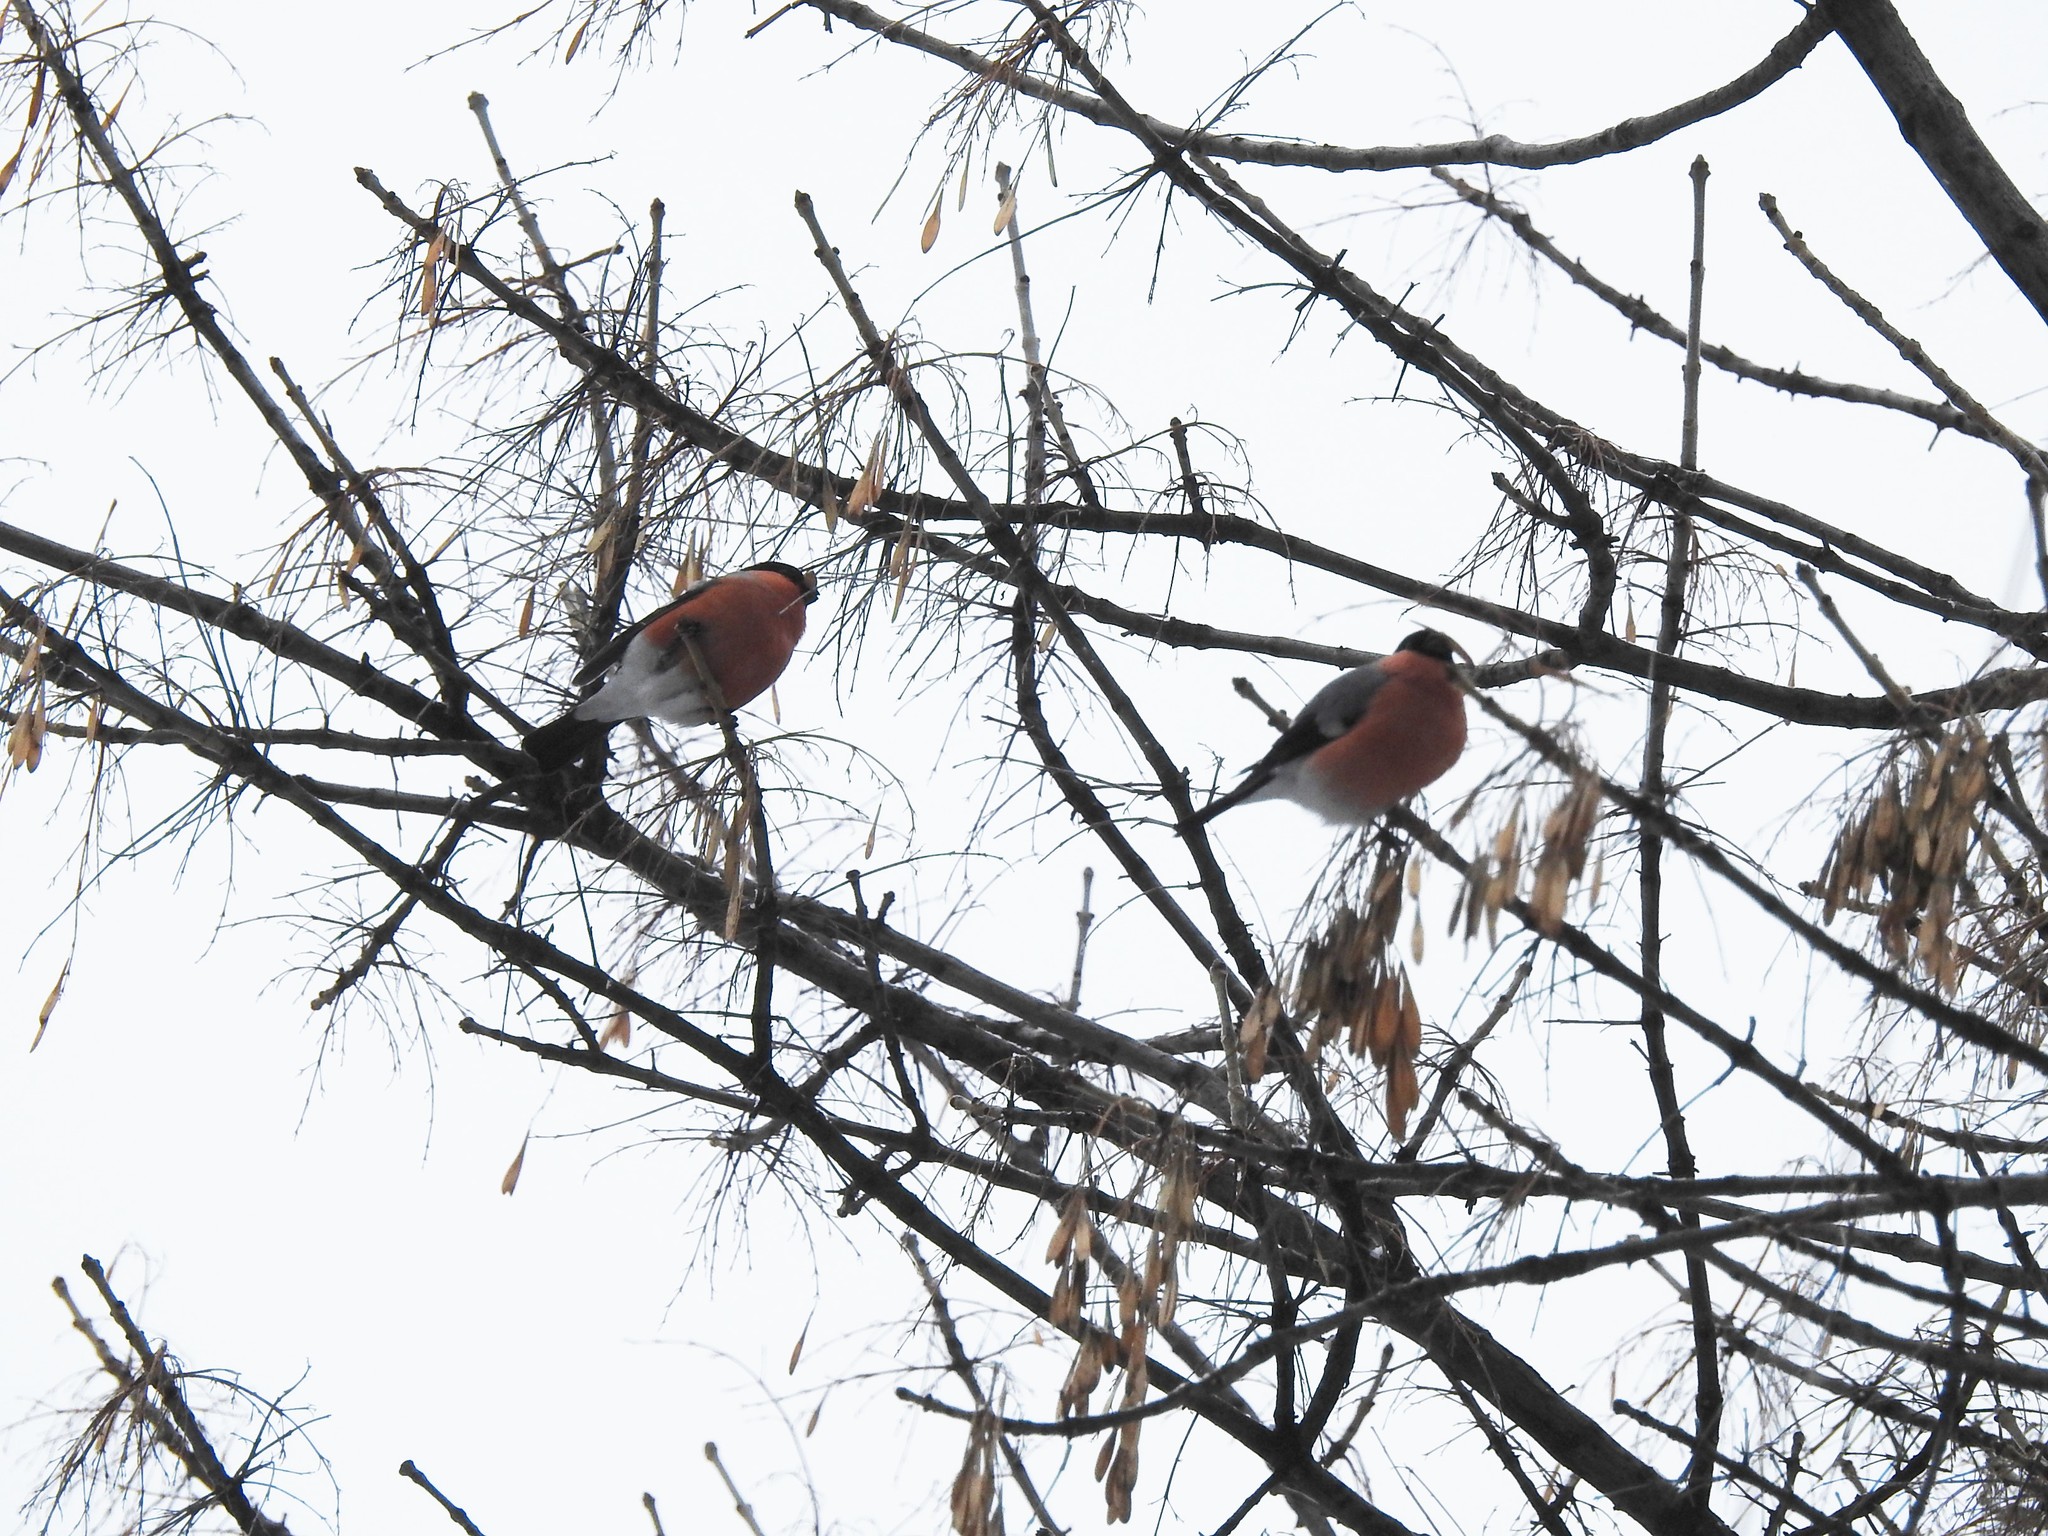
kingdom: Animalia
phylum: Chordata
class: Aves
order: Passeriformes
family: Fringillidae
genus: Pyrrhula
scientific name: Pyrrhula pyrrhula
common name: Eurasian bullfinch
